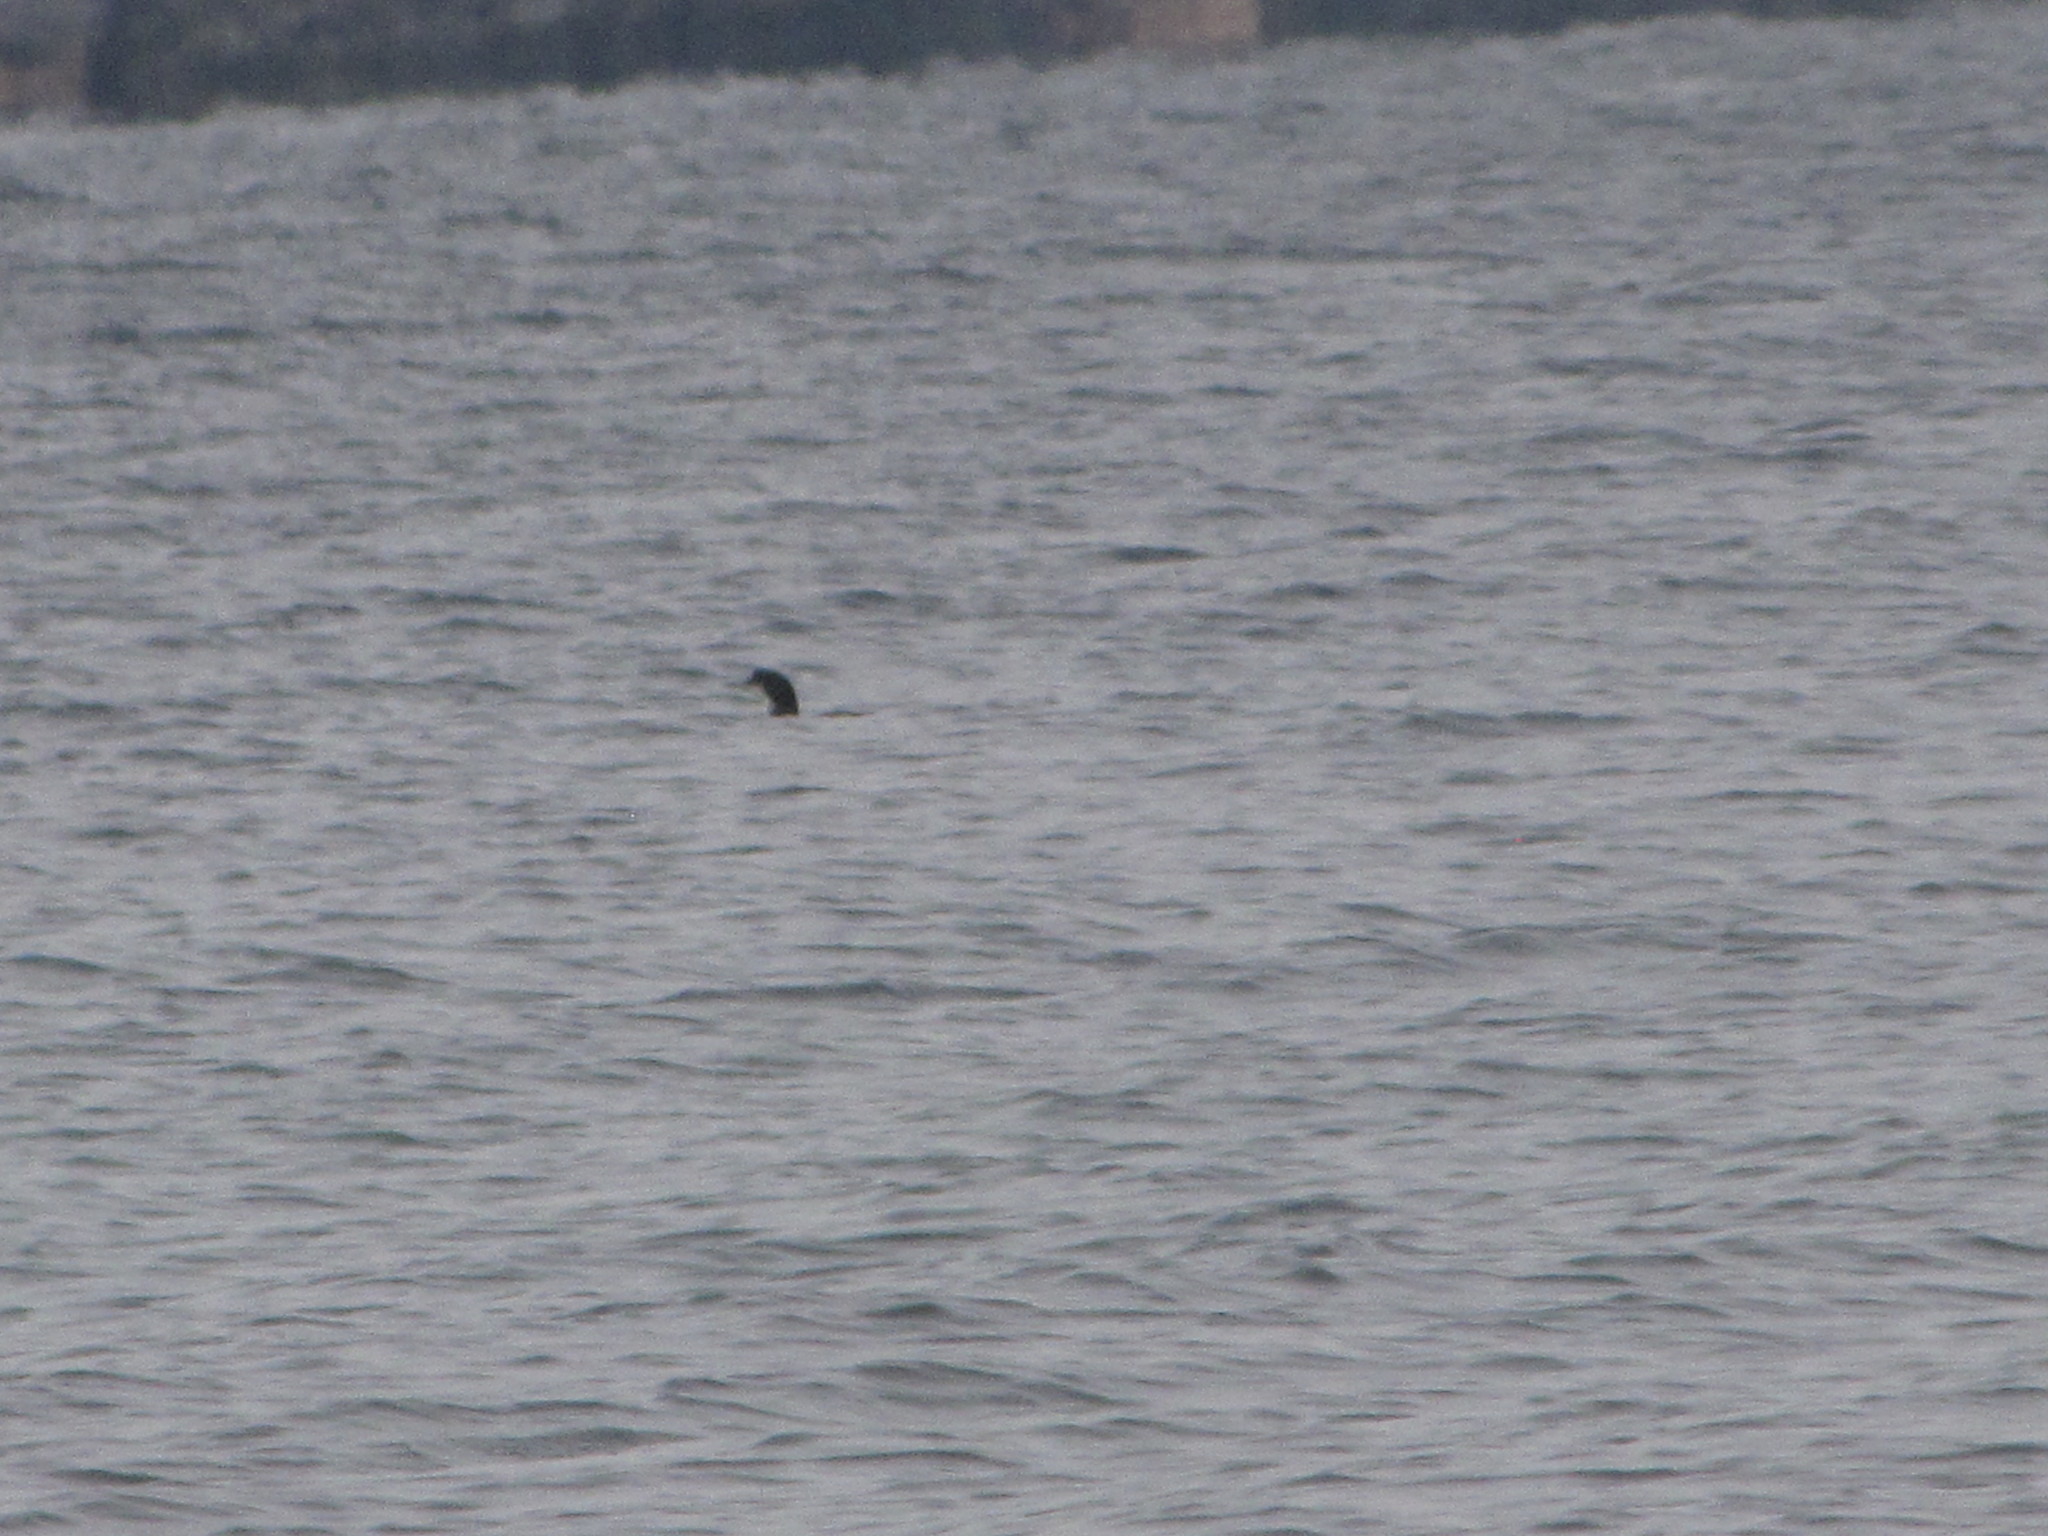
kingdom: Animalia
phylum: Chordata
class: Aves
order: Gaviiformes
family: Gaviidae
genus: Gavia
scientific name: Gavia
